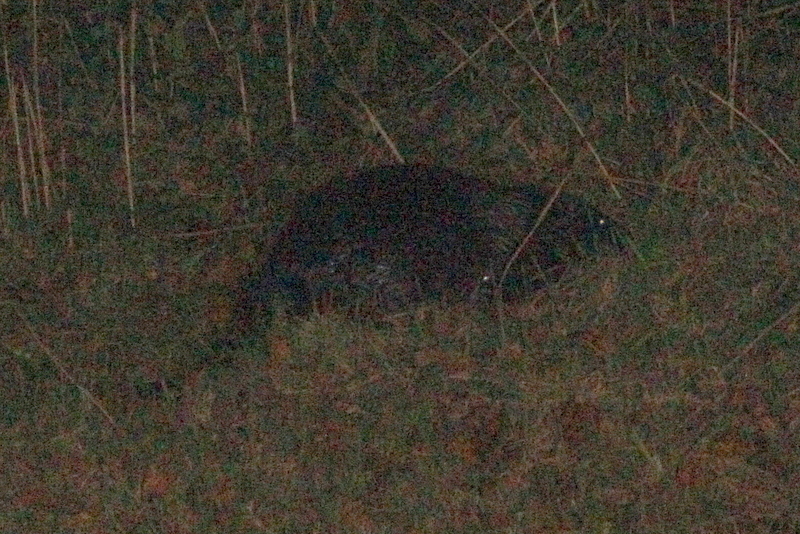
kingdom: Animalia
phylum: Chordata
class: Mammalia
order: Rodentia
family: Castoridae
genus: Castor
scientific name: Castor fiber
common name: Eurasian beaver
